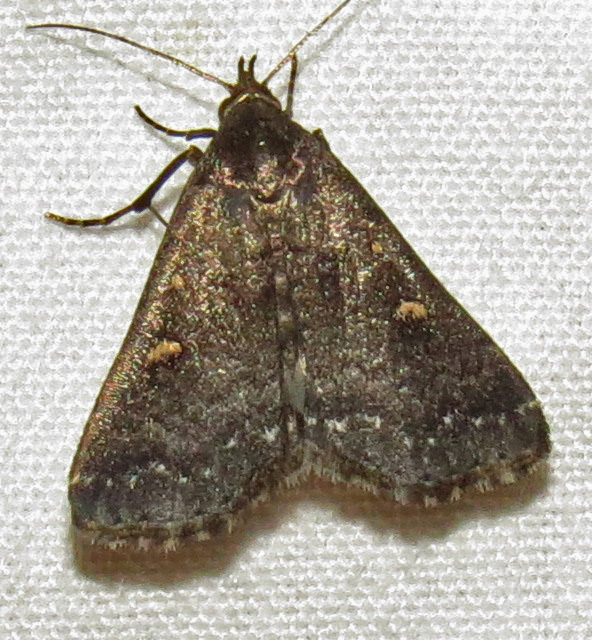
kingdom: Animalia
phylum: Arthropoda
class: Insecta
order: Lepidoptera
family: Erebidae
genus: Tetanolita
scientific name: Tetanolita mynesalis
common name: Smoky tetanolita moth
